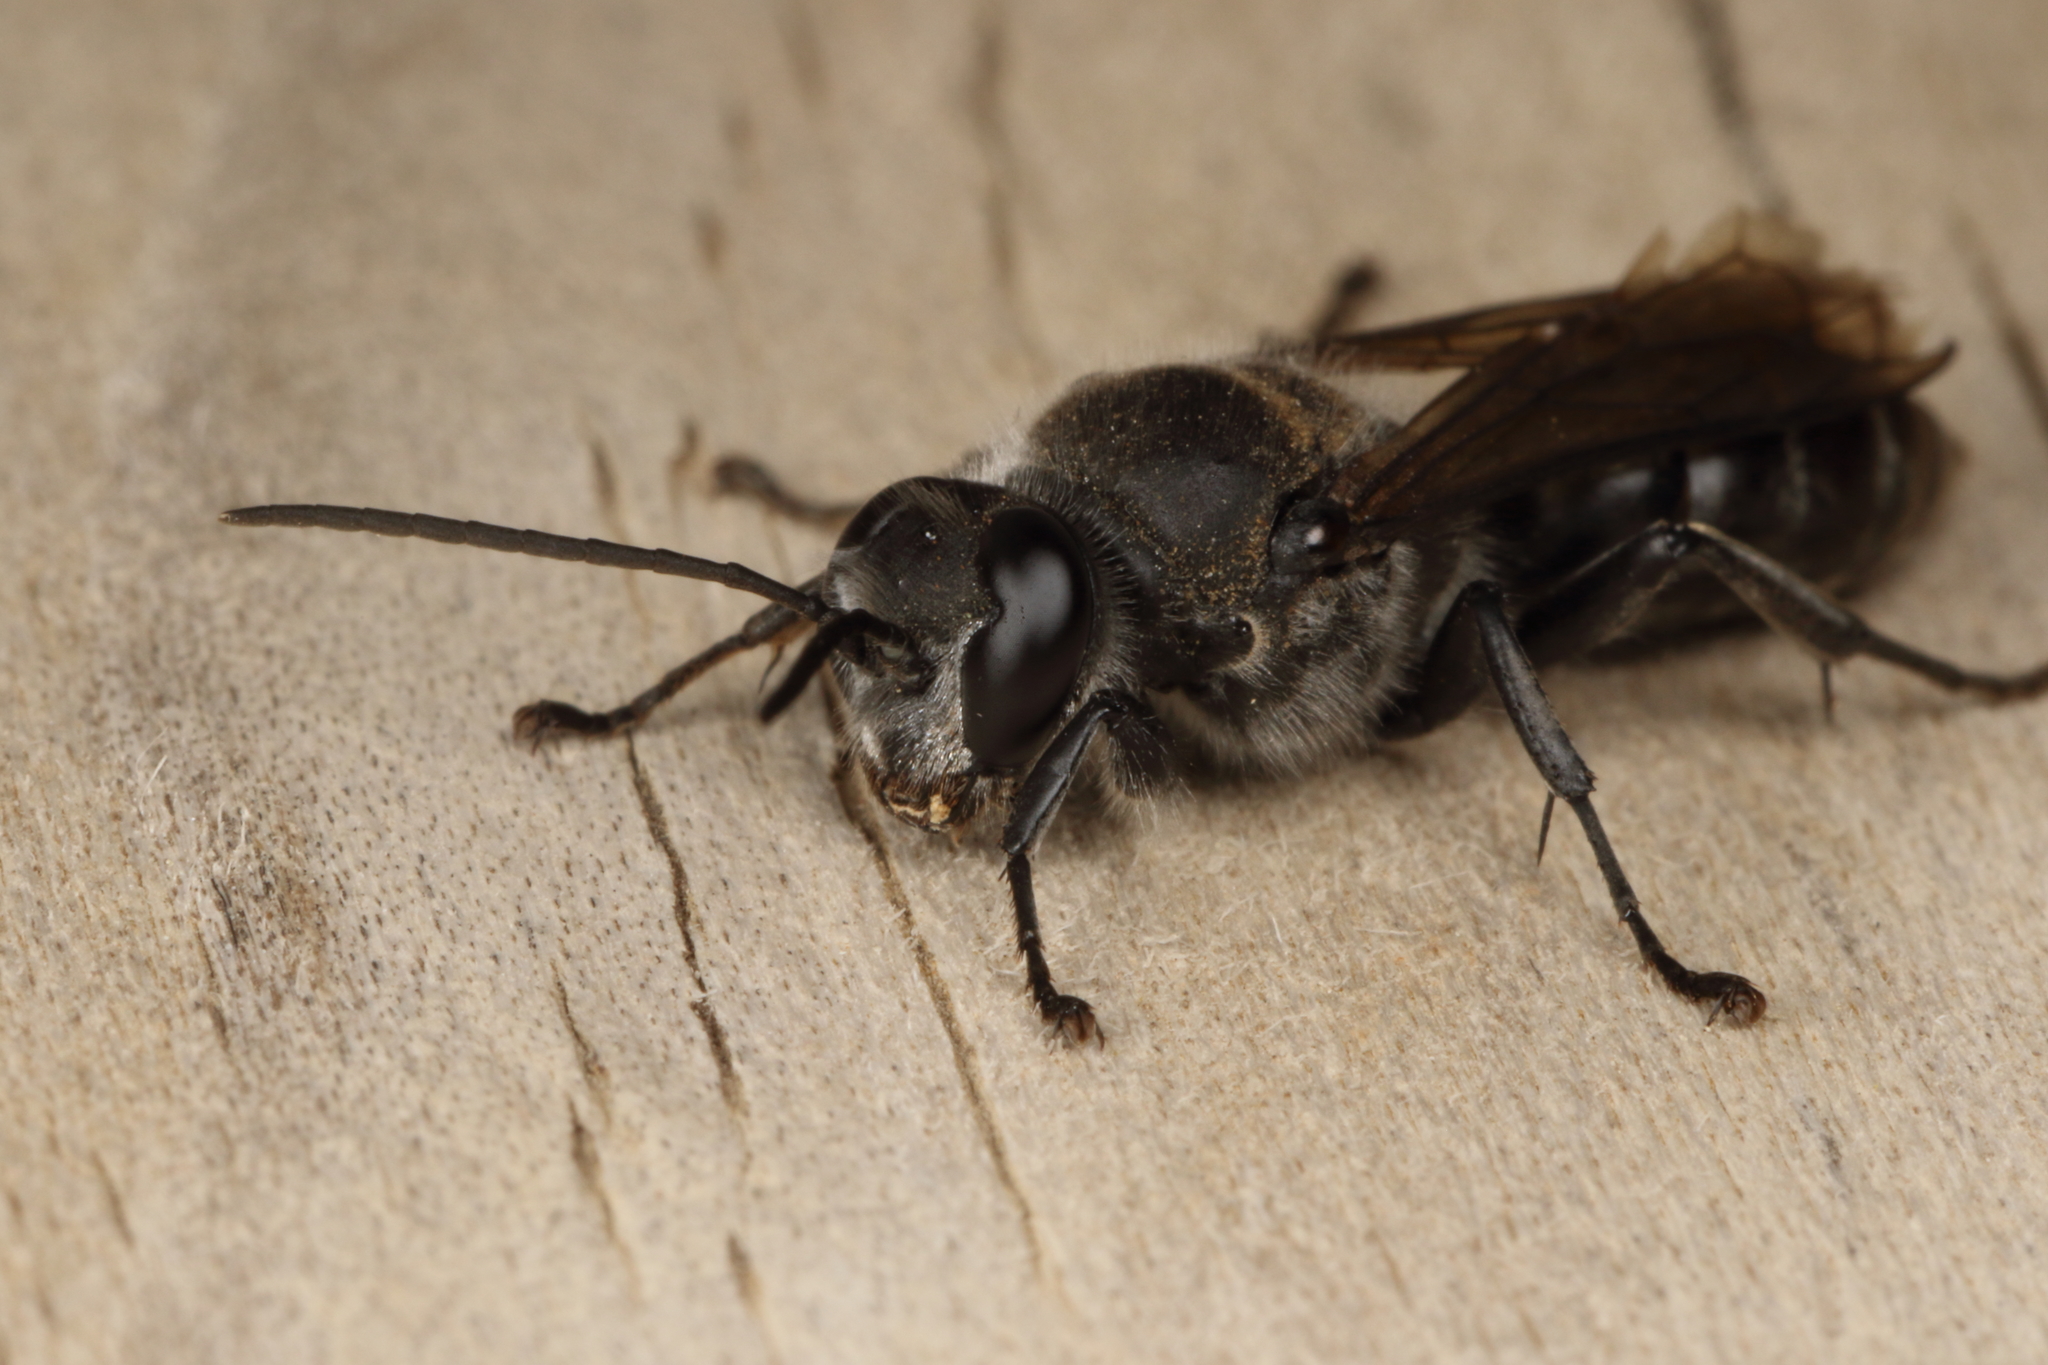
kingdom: Animalia
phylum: Arthropoda
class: Insecta
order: Hymenoptera
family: Crabronidae
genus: Pison
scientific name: Pison spinolae
